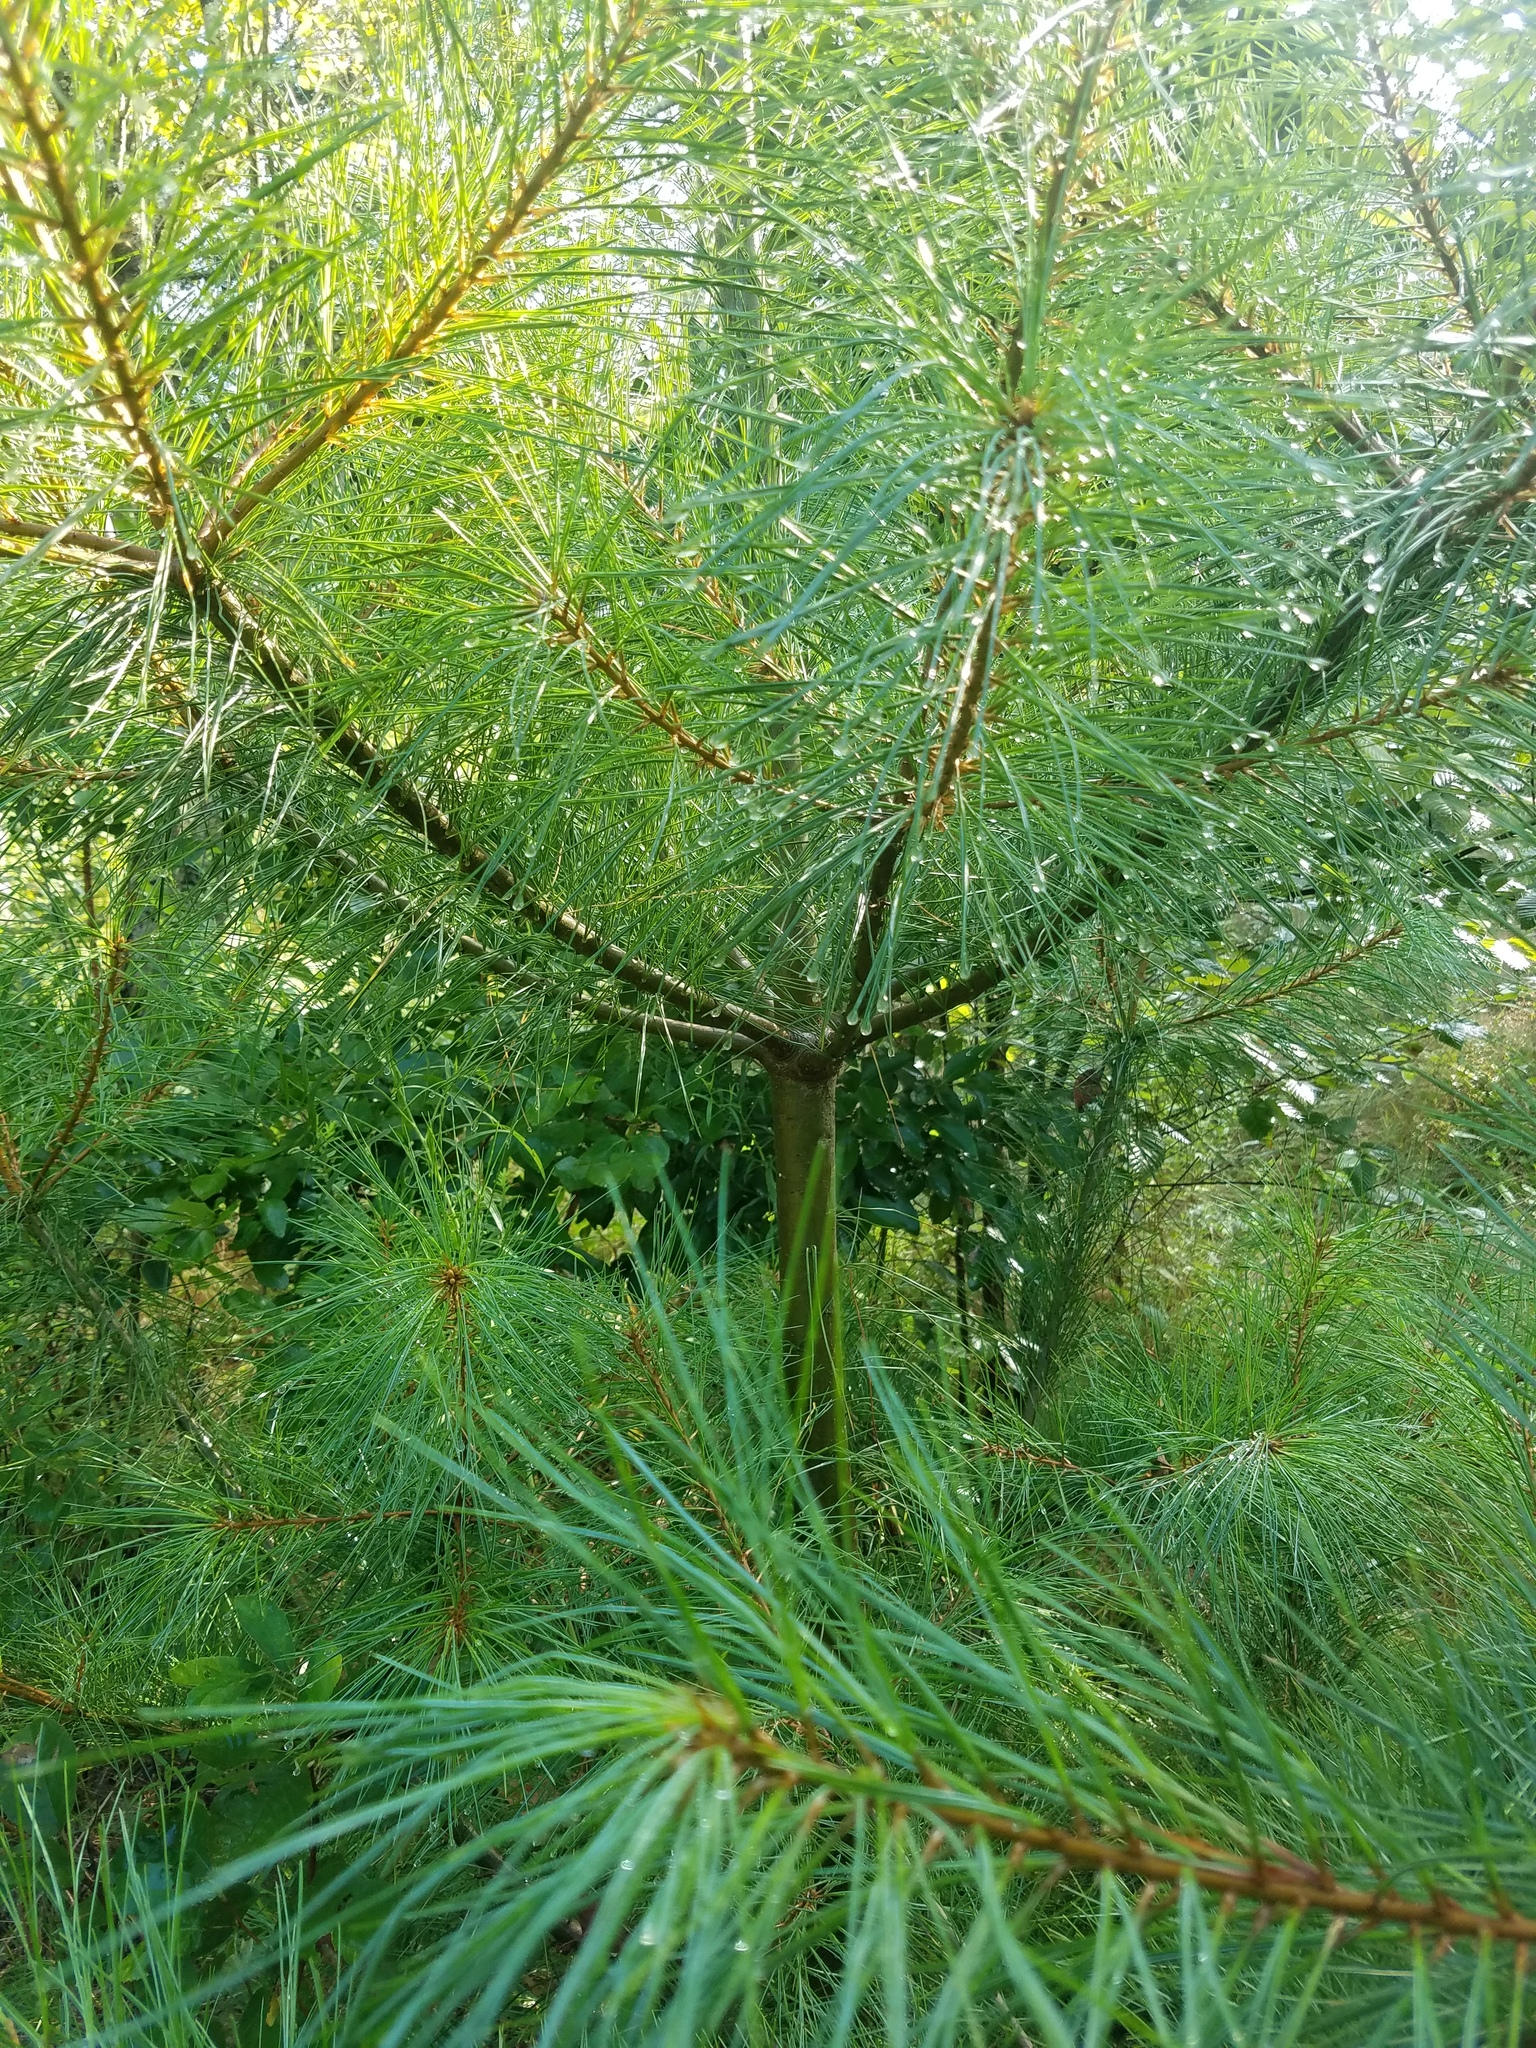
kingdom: Plantae
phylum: Tracheophyta
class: Pinopsida
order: Pinales
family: Pinaceae
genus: Pinus
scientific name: Pinus strobus
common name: Weymouth pine
